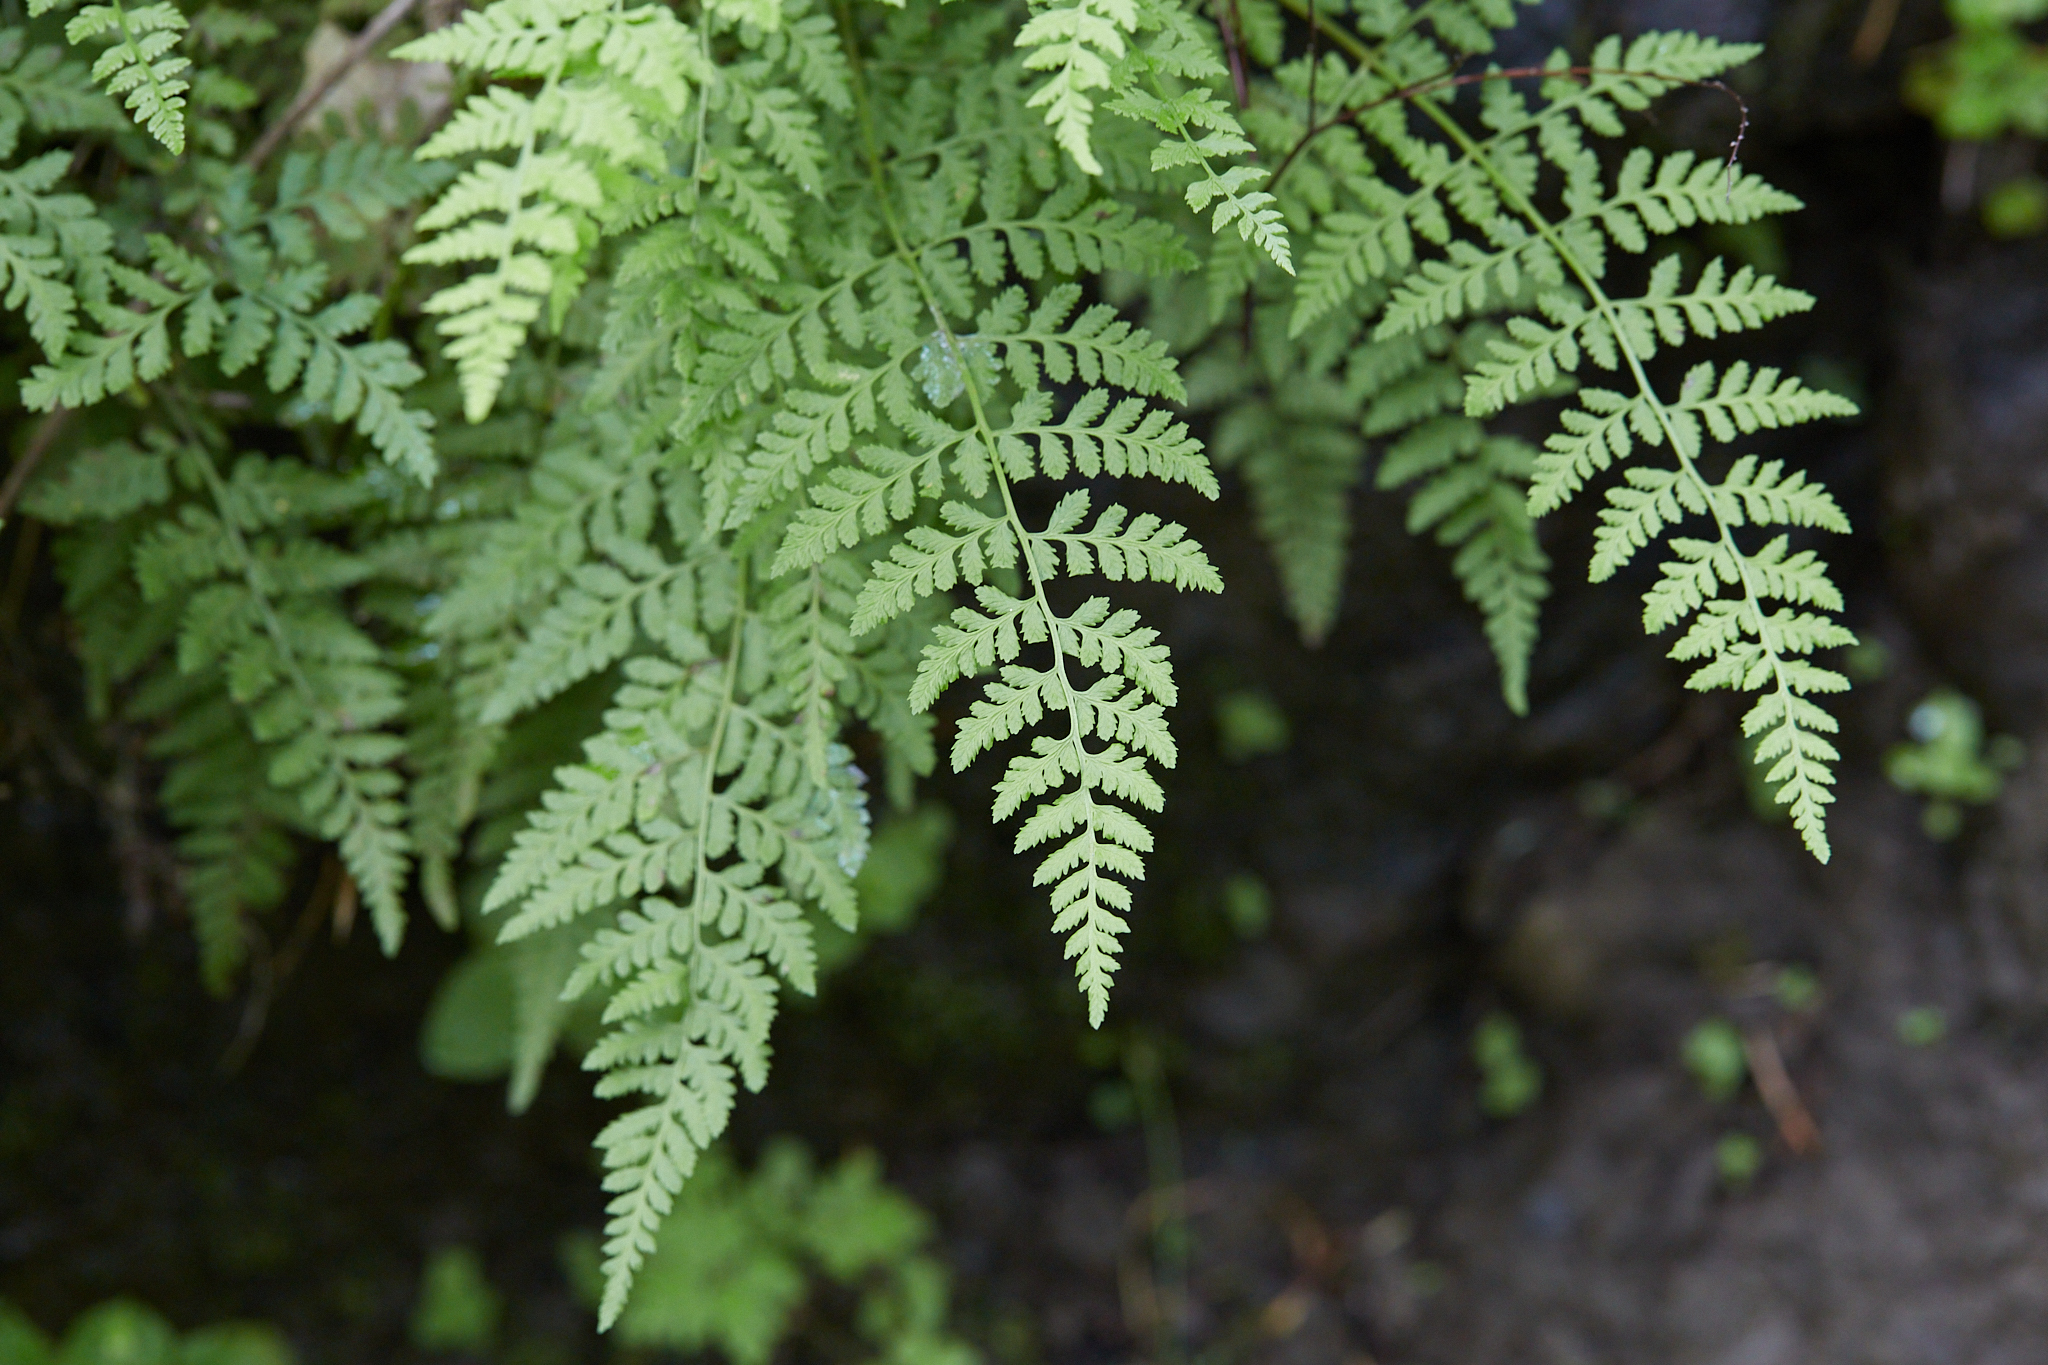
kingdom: Plantae
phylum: Tracheophyta
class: Polypodiopsida
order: Polypodiales
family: Cystopteridaceae
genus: Cystopteris
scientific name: Cystopteris fragilis
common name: Brittle bladder fern
